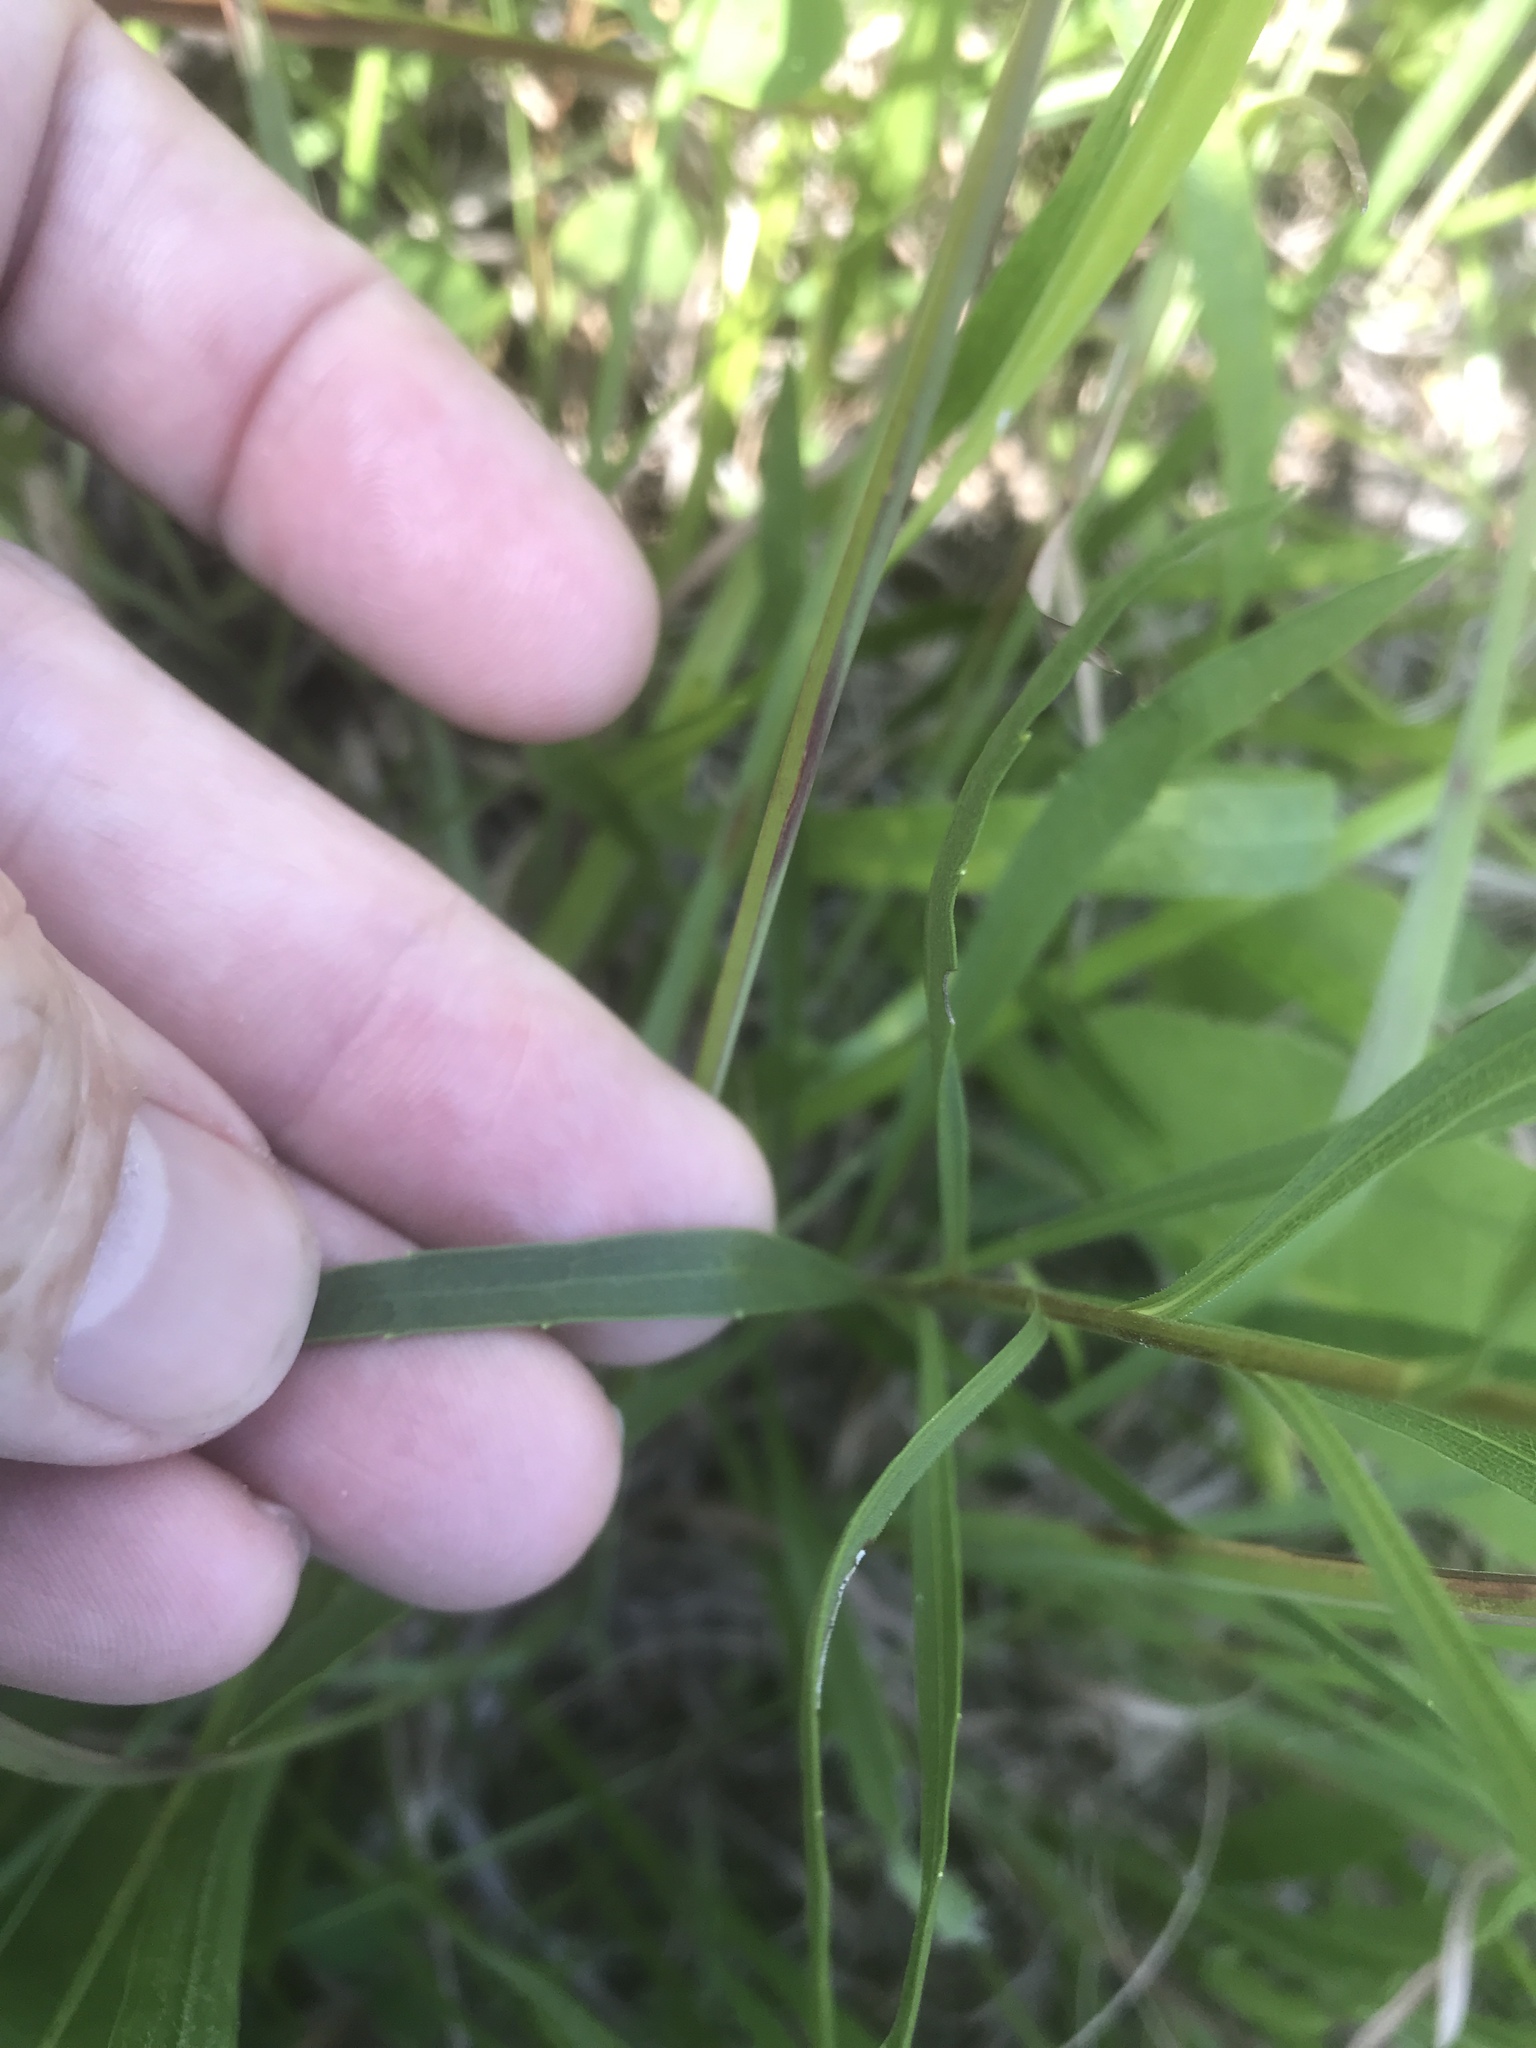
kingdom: Plantae
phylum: Tracheophyta
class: Magnoliopsida
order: Asterales
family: Asteraceae
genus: Solidago
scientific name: Solidago ptarmicoides
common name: White flat-top goldenrod
